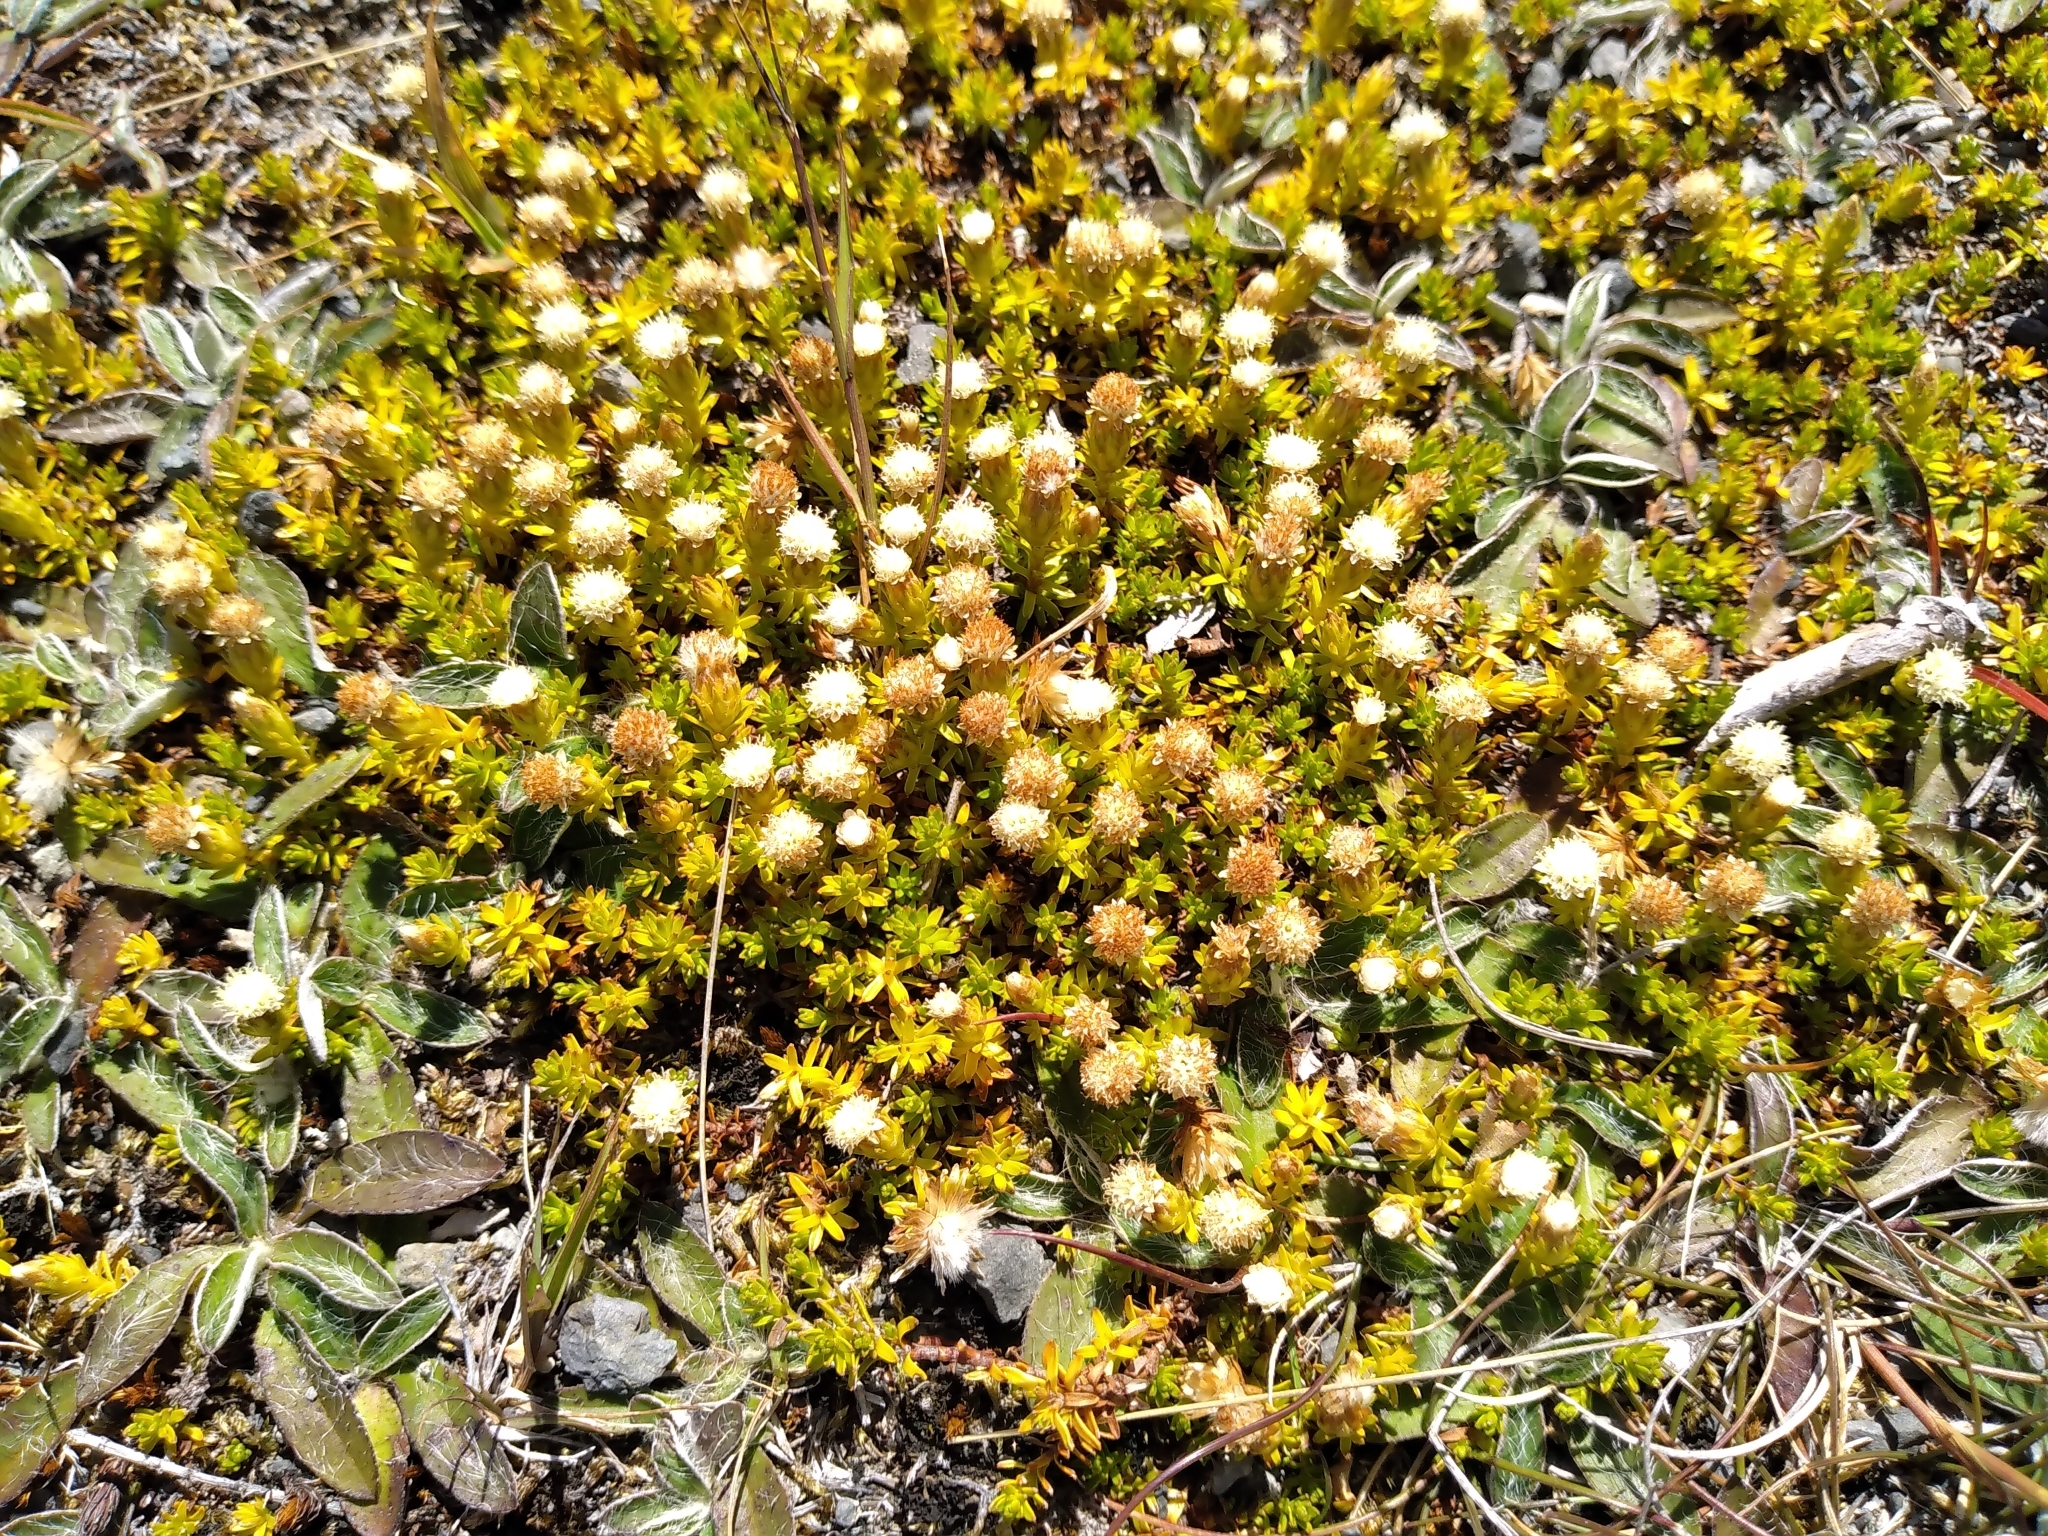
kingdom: Plantae
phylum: Tracheophyta
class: Magnoliopsida
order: Asterales
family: Asteraceae
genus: Raoulia
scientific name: Raoulia glabra
